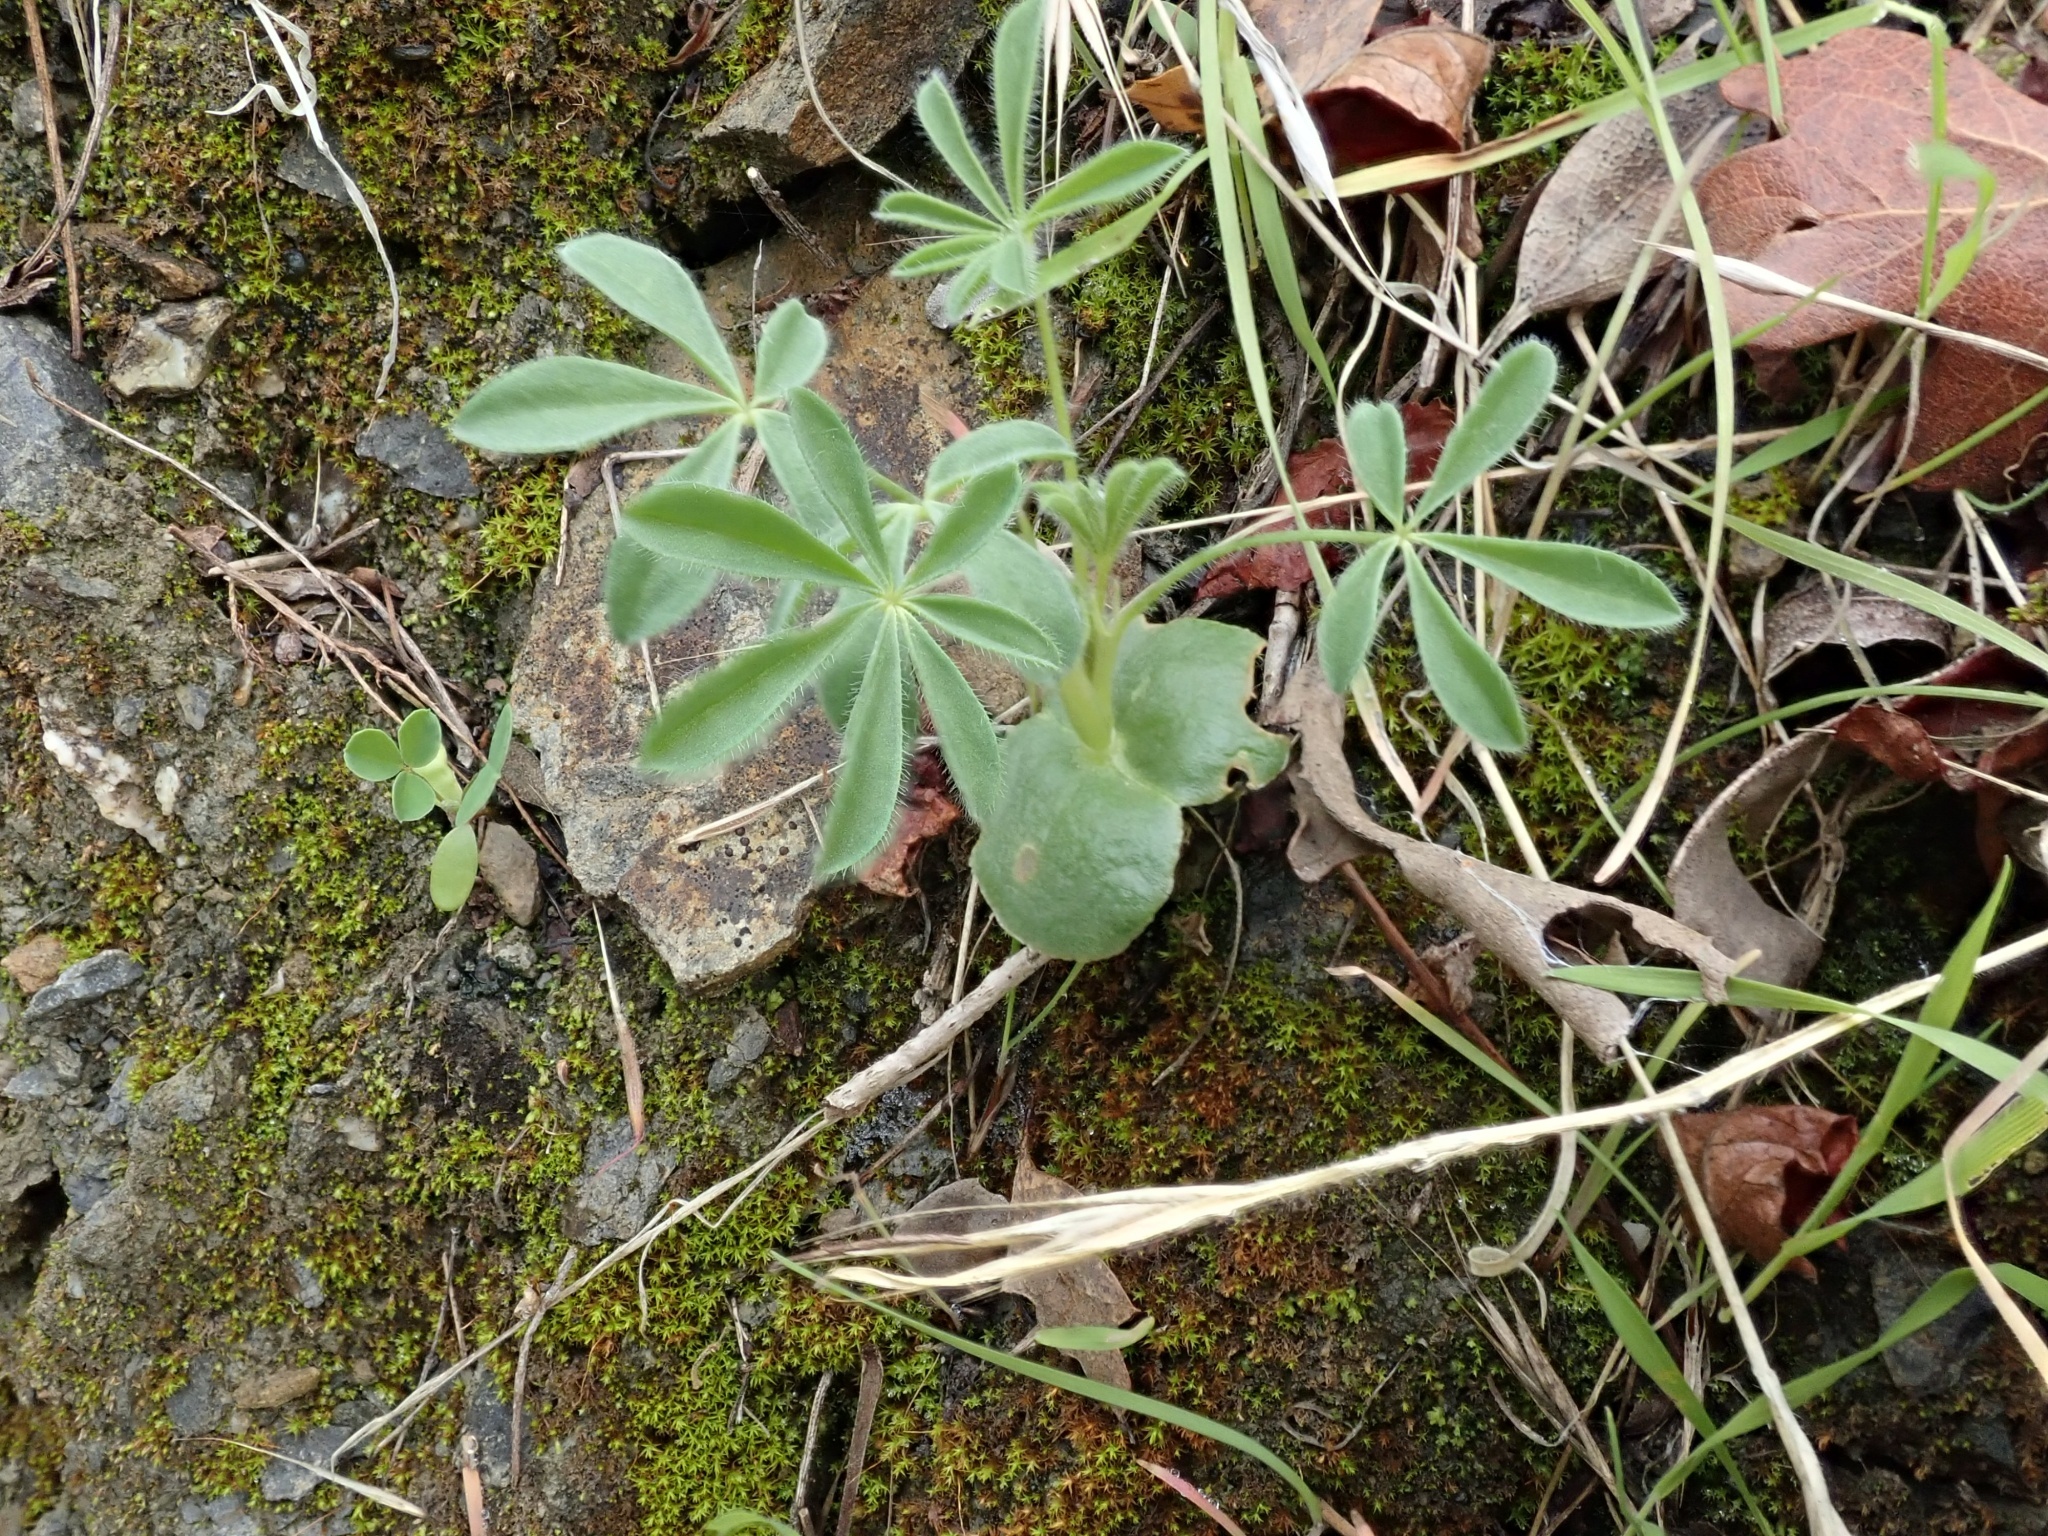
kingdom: Plantae
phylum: Tracheophyta
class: Magnoliopsida
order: Fabales
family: Fabaceae
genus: Lupinus
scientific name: Lupinus microcarpus
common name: Chick lupine
